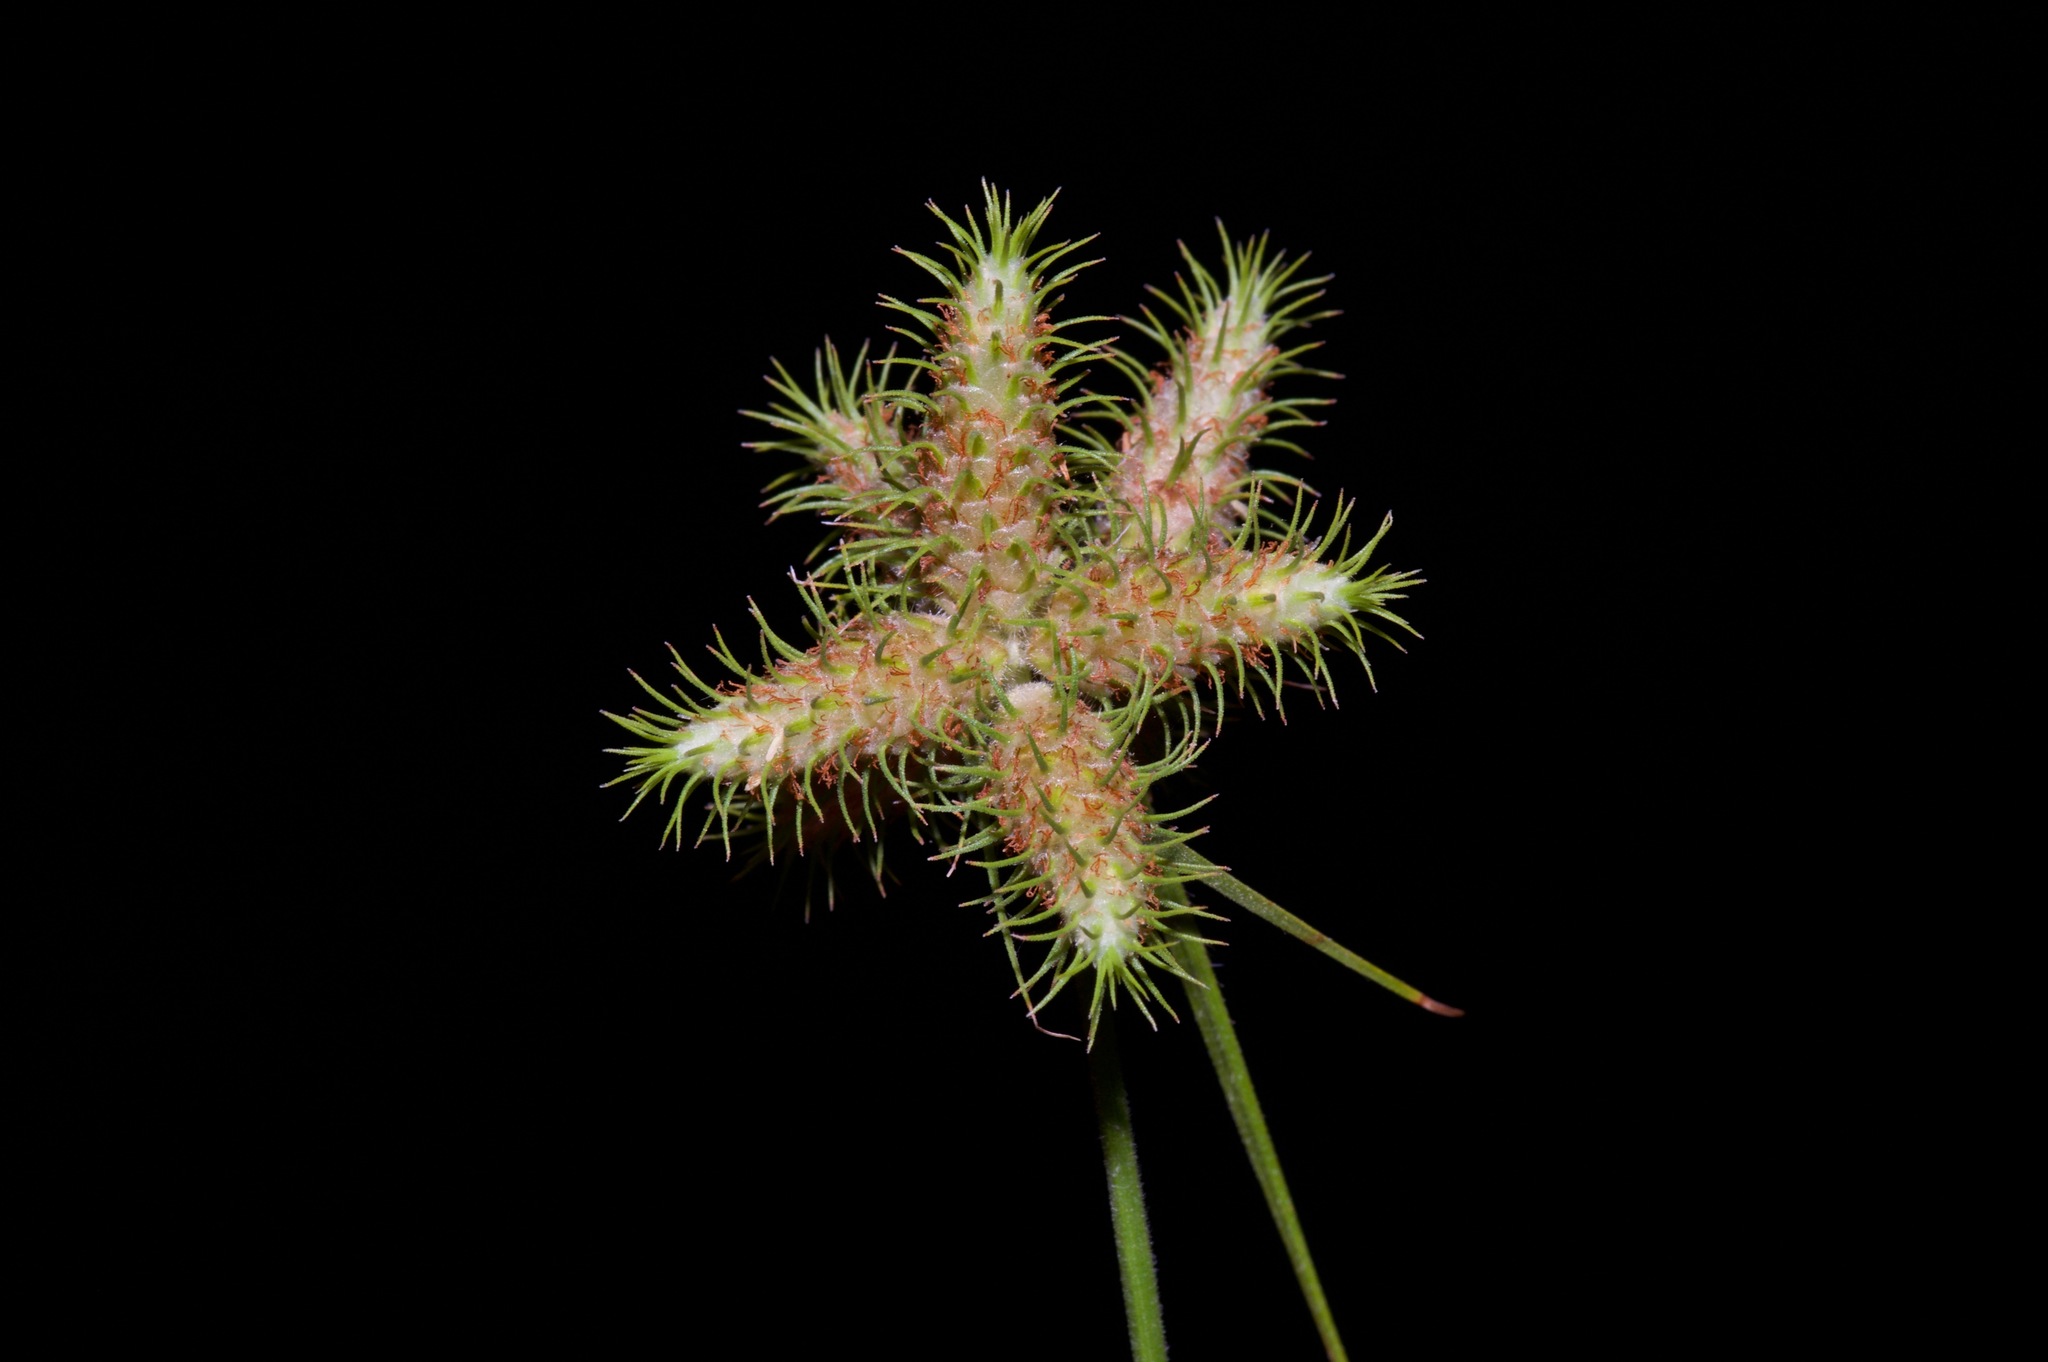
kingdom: Plantae
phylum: Tracheophyta
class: Liliopsida
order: Poales
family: Cyperaceae
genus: Fuirena
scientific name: Fuirena simplex
